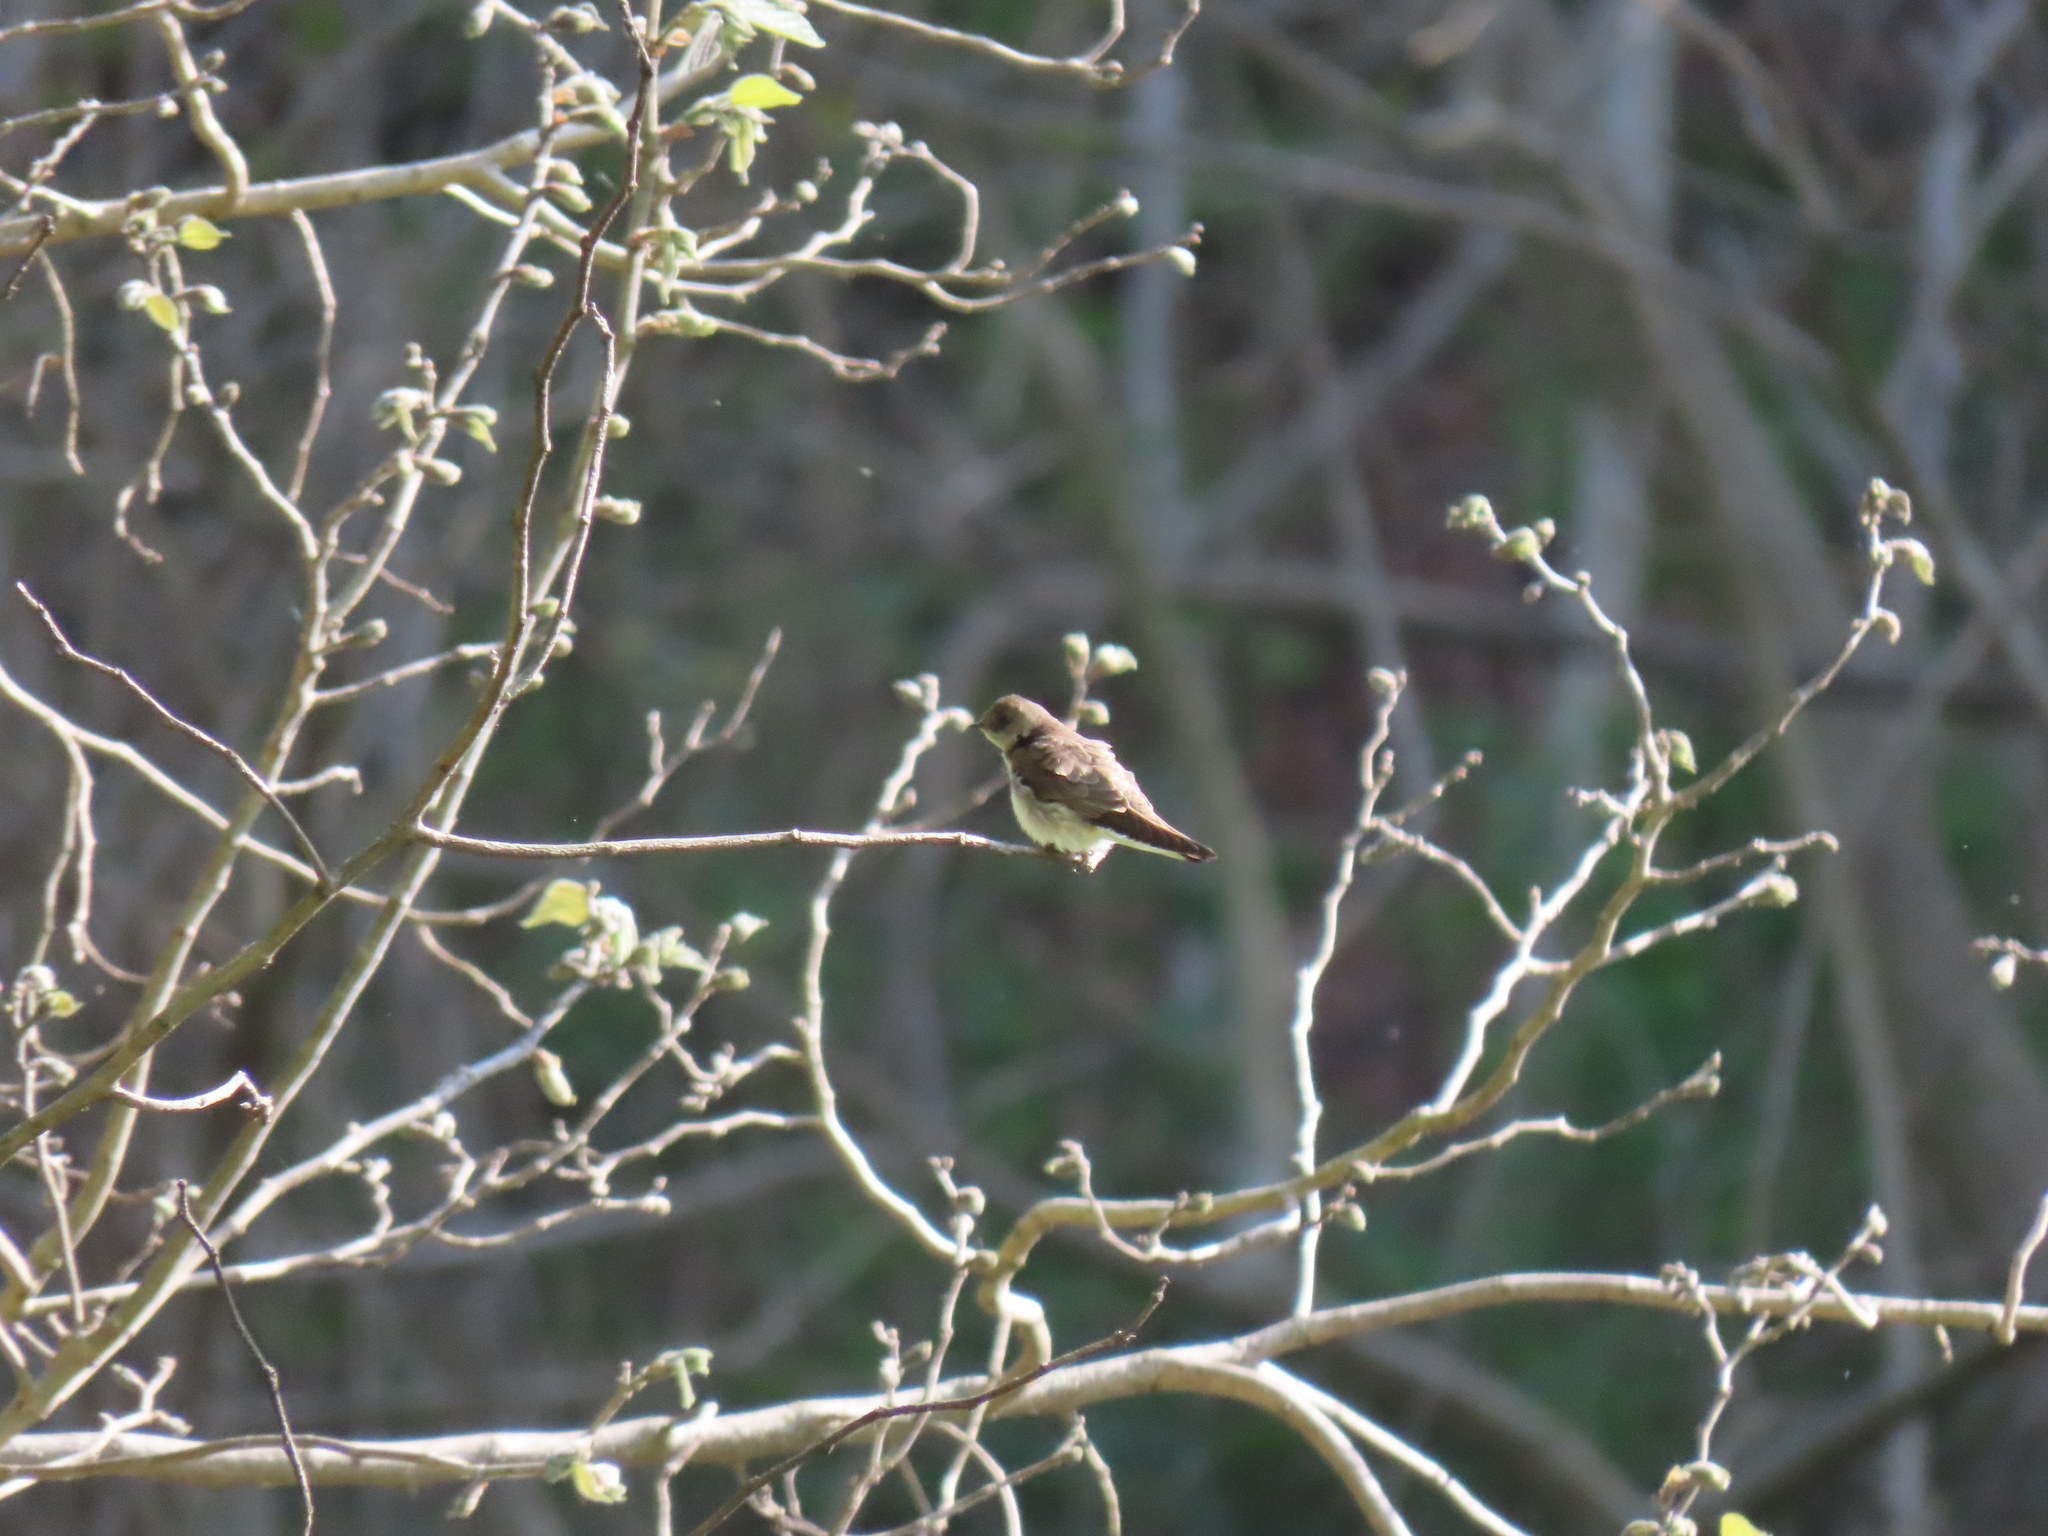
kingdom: Animalia
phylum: Chordata
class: Aves
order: Passeriformes
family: Hirundinidae
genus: Stelgidopteryx
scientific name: Stelgidopteryx serripennis
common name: Northern rough-winged swallow
